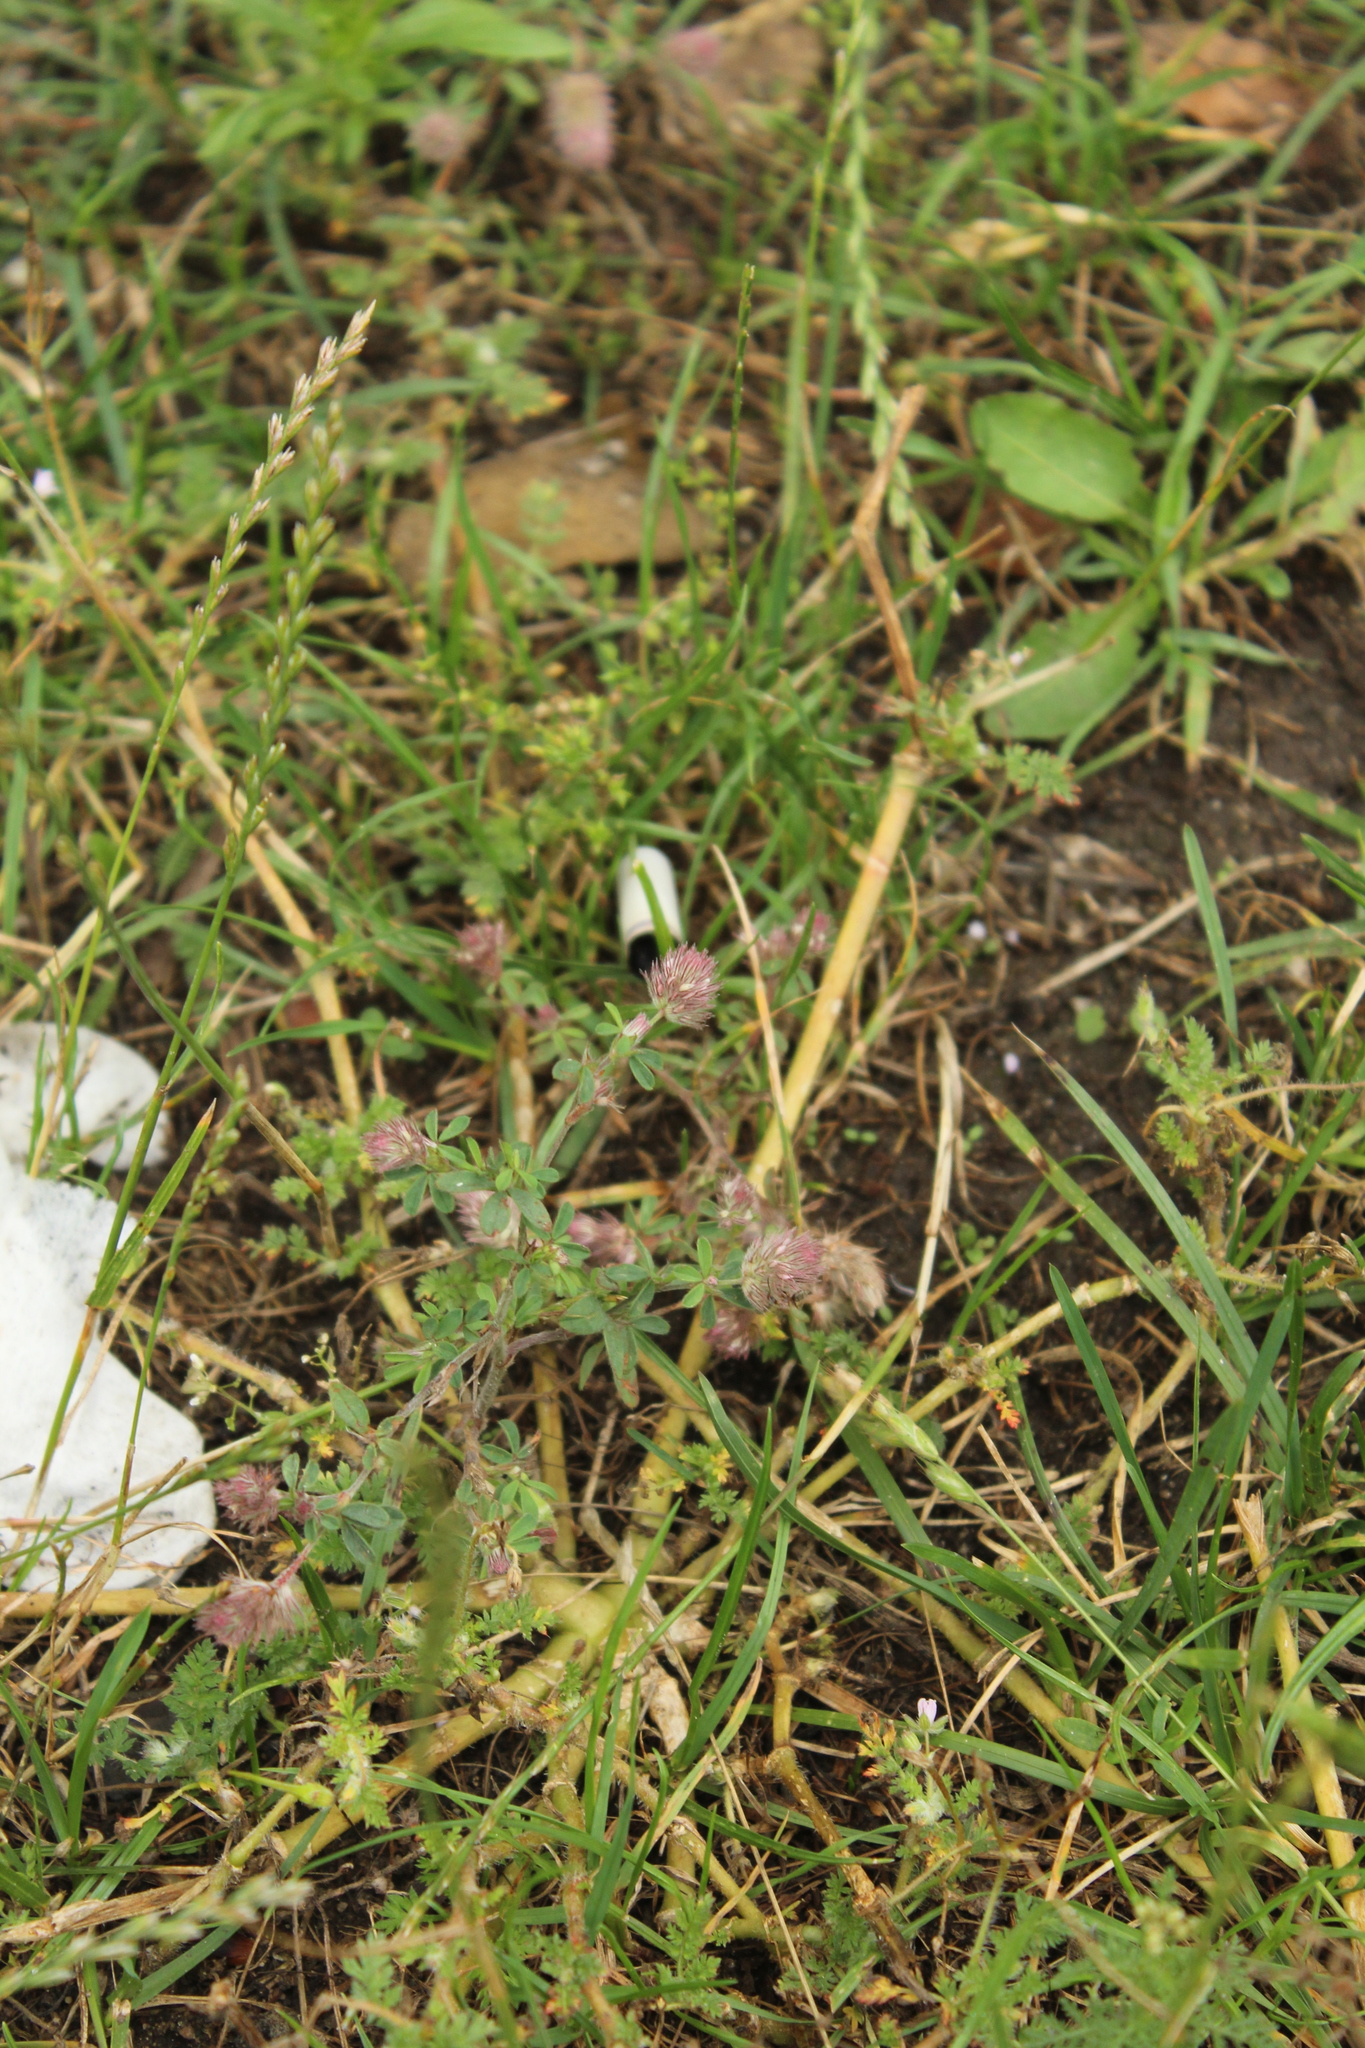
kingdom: Plantae
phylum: Tracheophyta
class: Magnoliopsida
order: Fabales
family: Fabaceae
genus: Trifolium
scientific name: Trifolium arvense
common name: Hare's-foot clover
